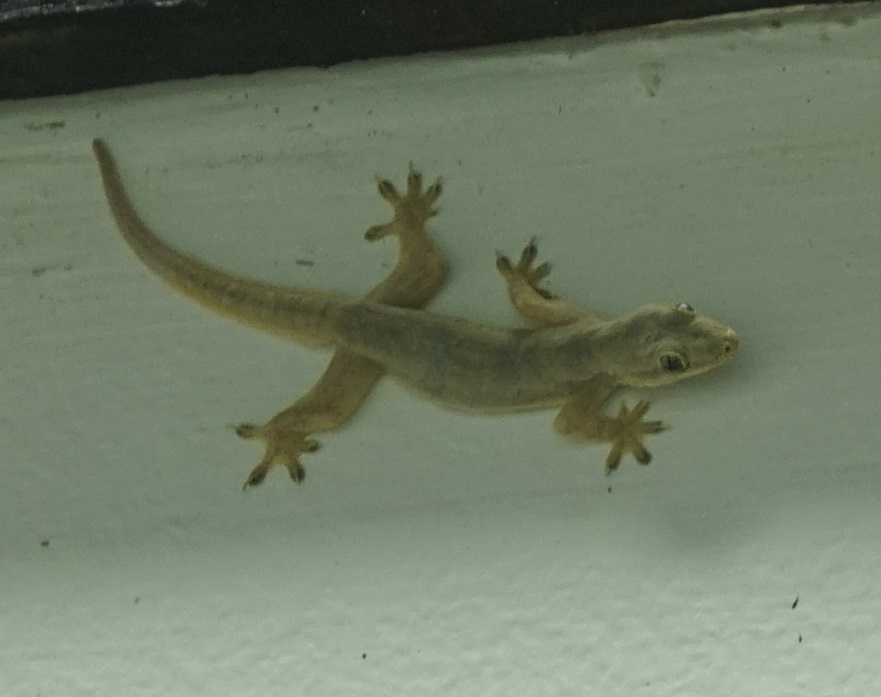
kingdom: Animalia
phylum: Chordata
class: Squamata
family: Gekkonidae
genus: Hemidactylus
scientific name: Hemidactylus platyurus
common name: Flat-tailed house gecko
